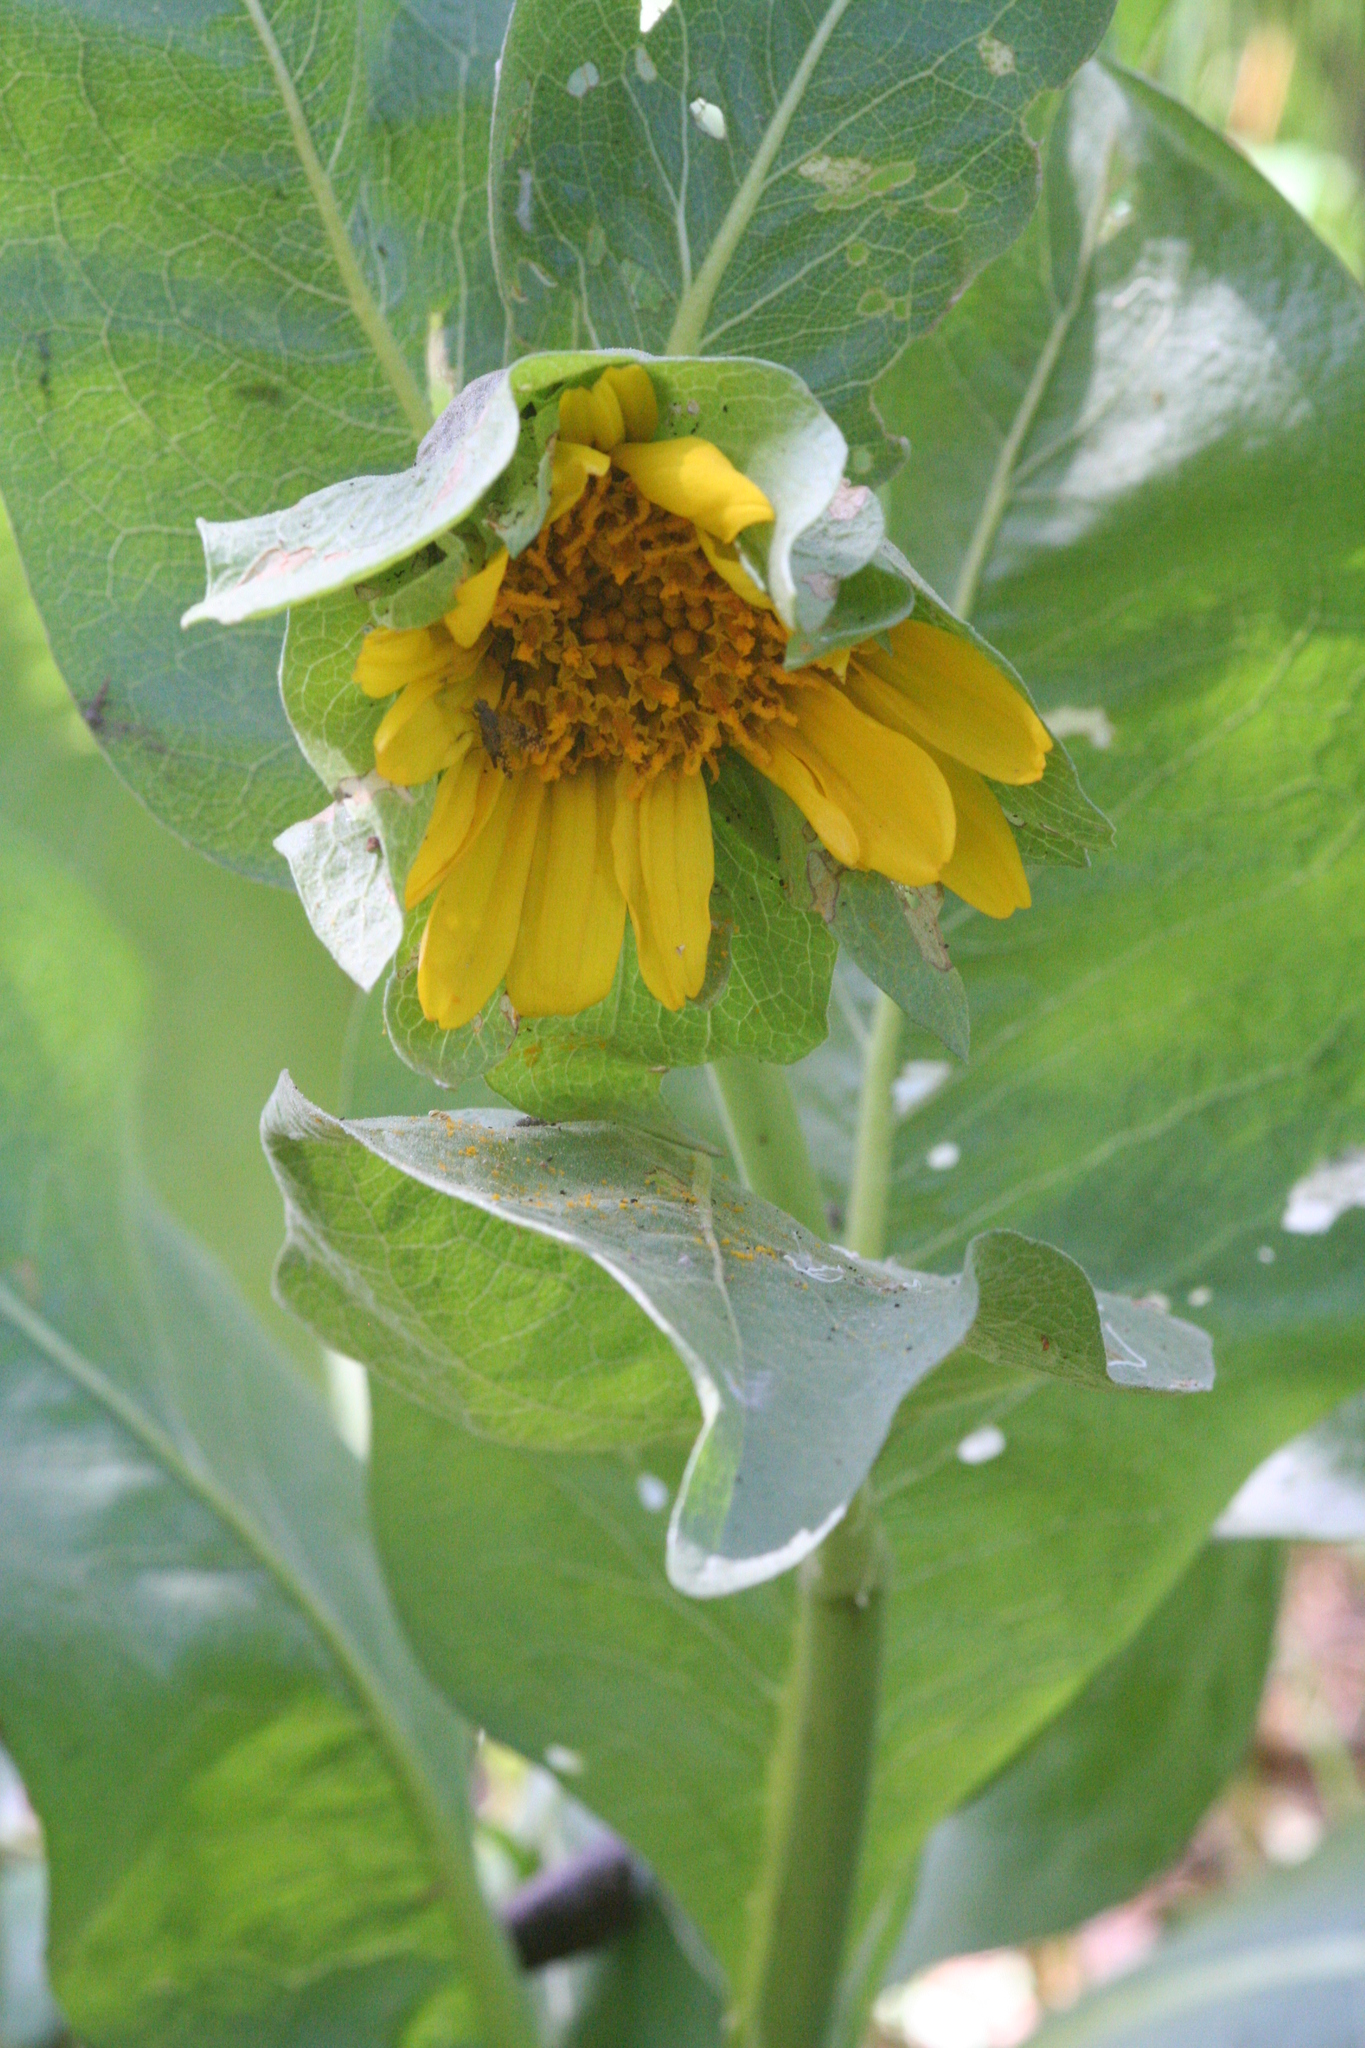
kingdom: Plantae
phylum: Tracheophyta
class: Magnoliopsida
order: Asterales
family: Asteraceae
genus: Wyethia
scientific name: Wyethia glabra
